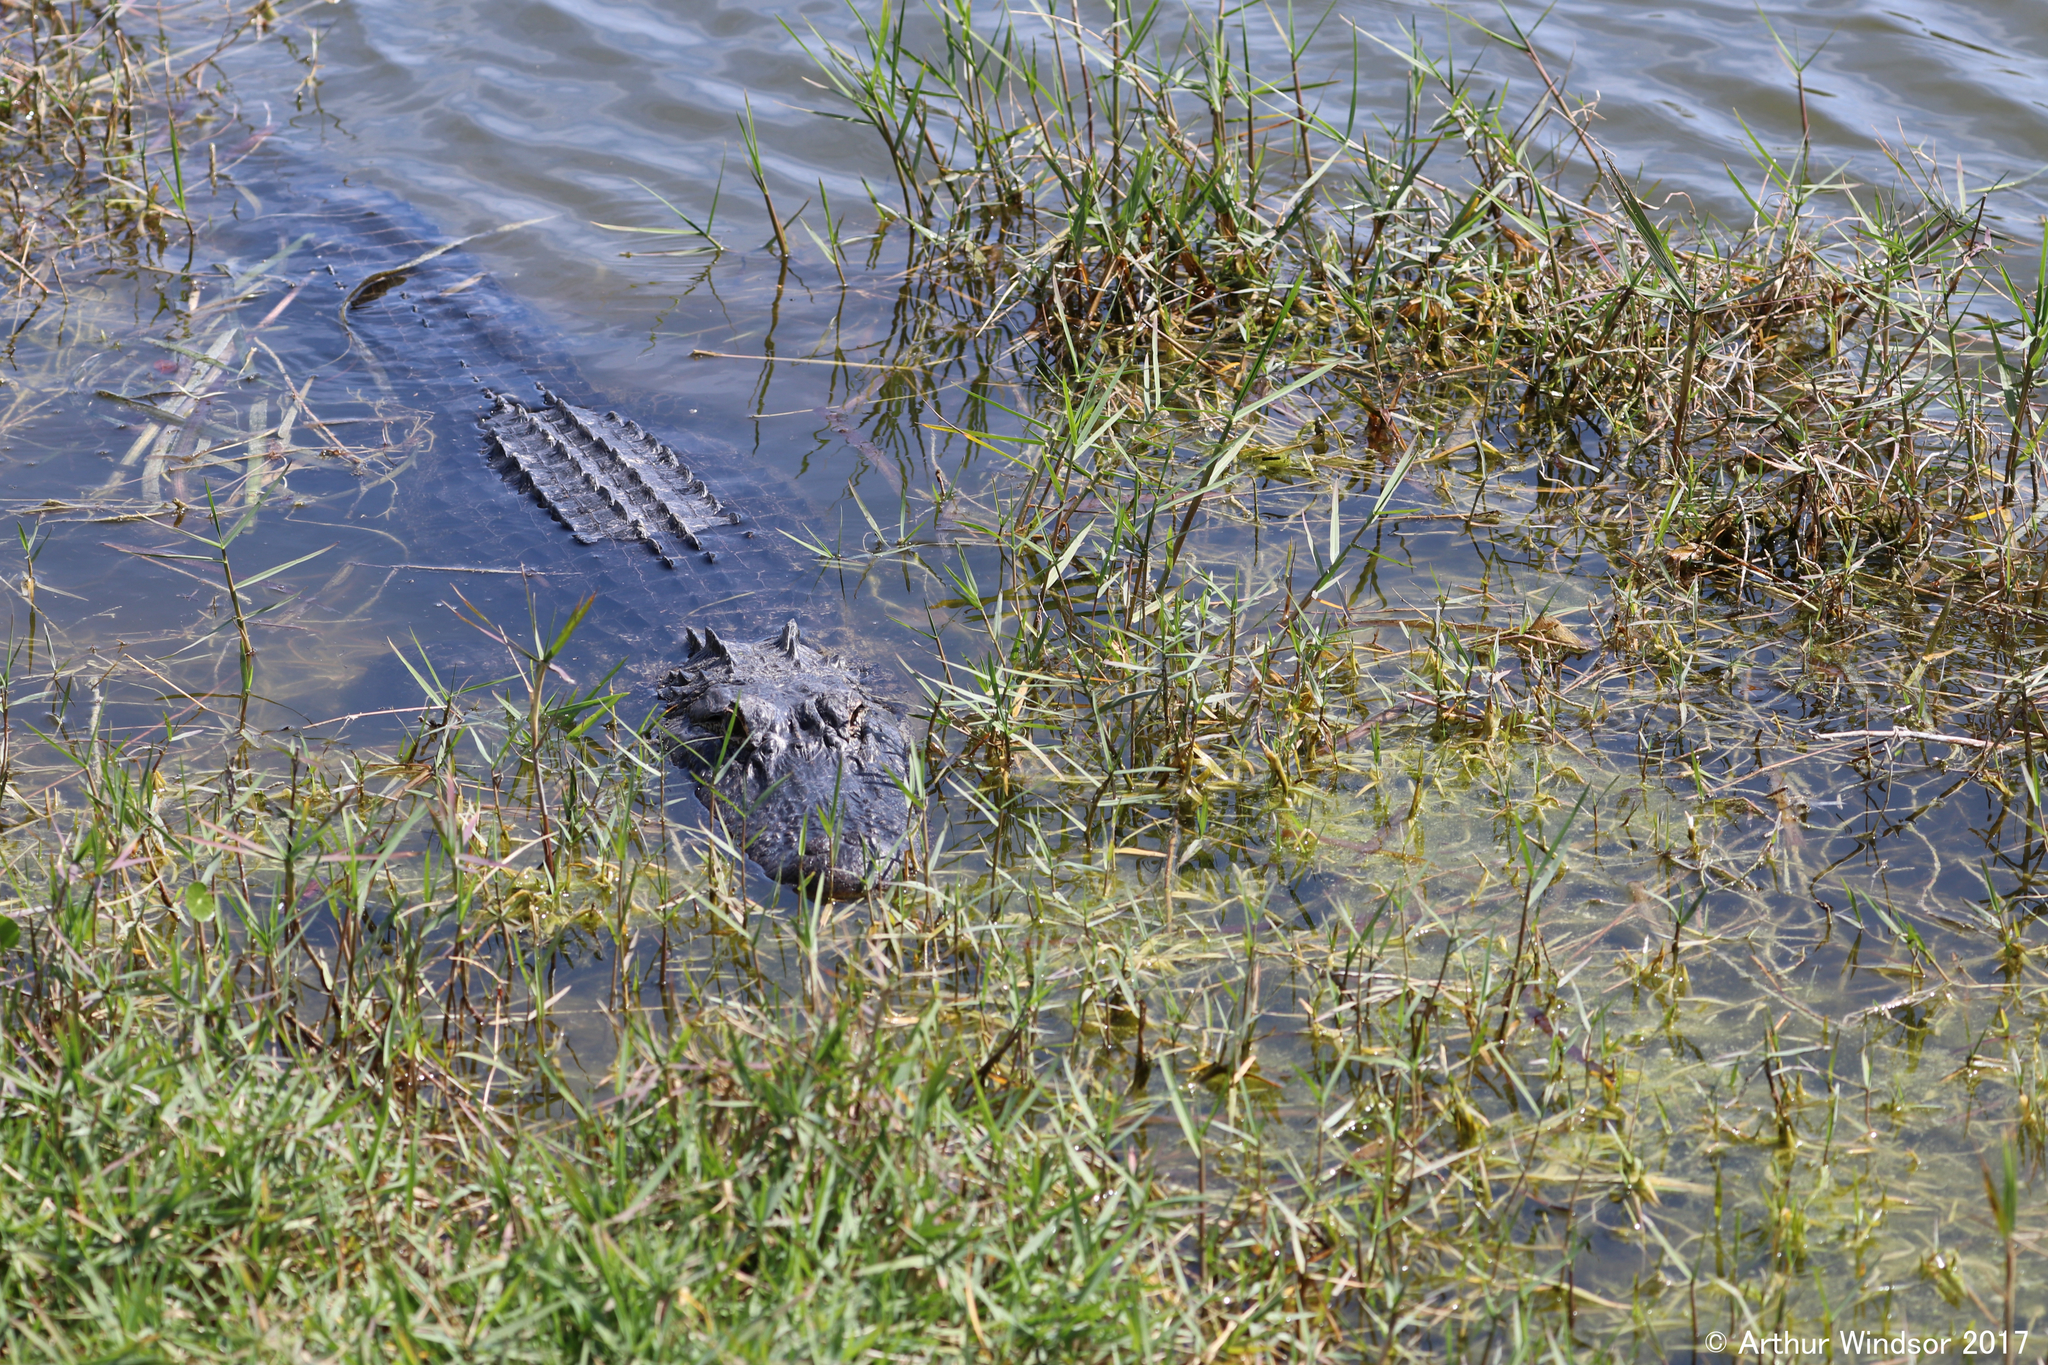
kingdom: Animalia
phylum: Chordata
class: Crocodylia
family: Alligatoridae
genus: Alligator
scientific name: Alligator mississippiensis
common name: American alligator
